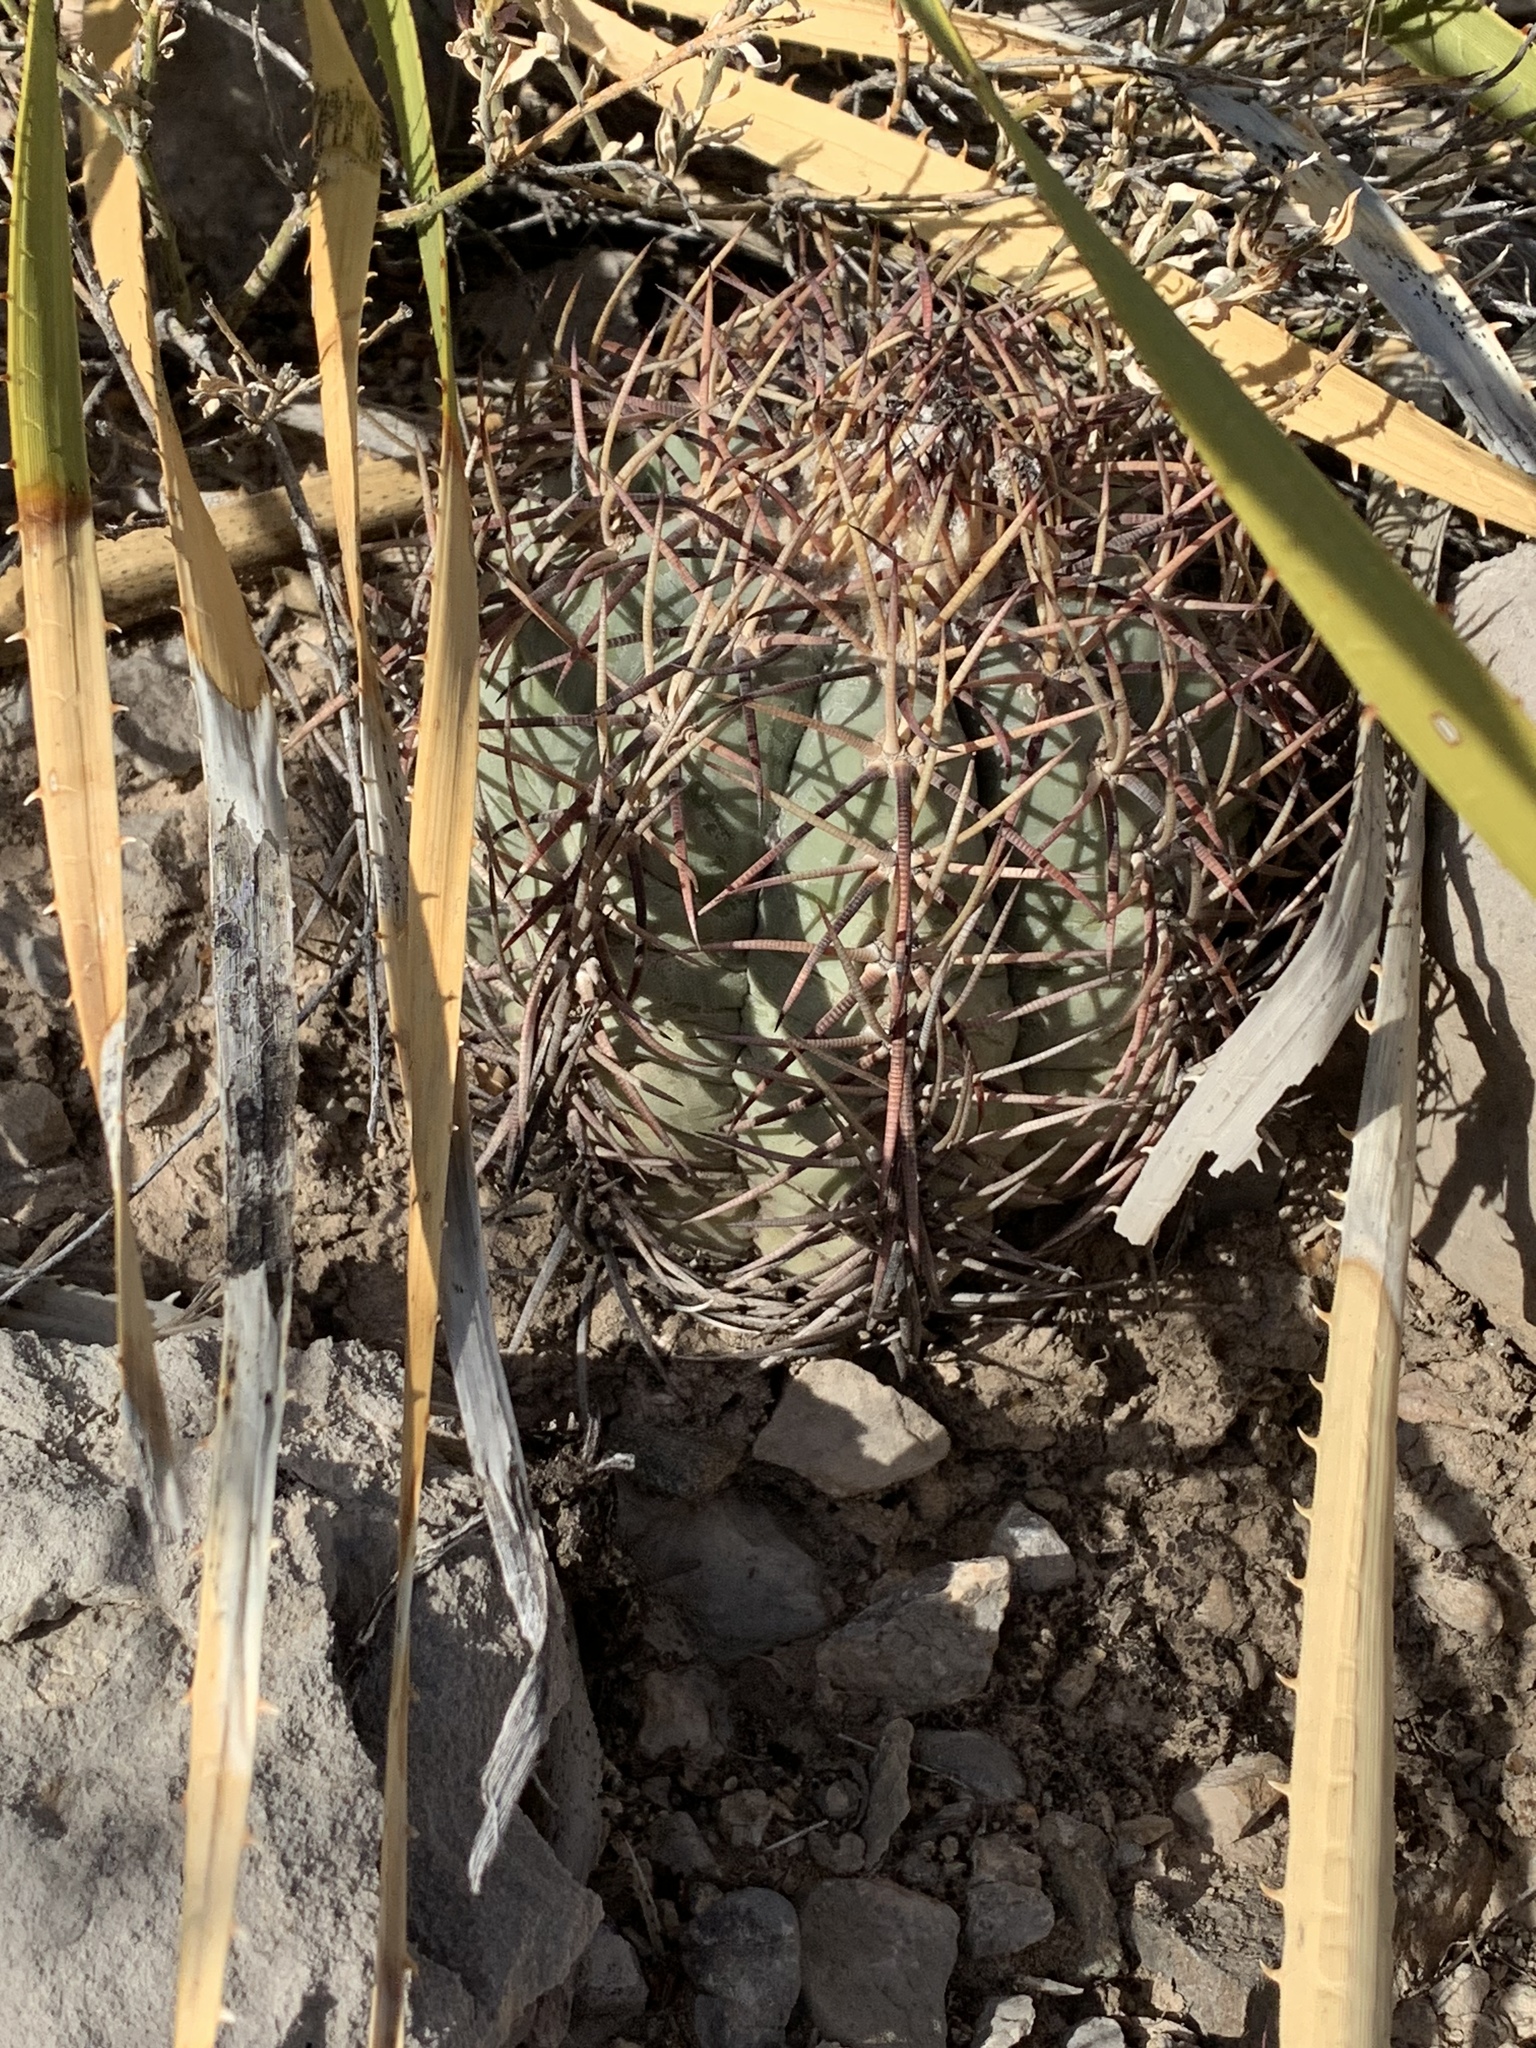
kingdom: Plantae
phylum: Tracheophyta
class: Magnoliopsida
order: Caryophyllales
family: Cactaceae
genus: Echinocactus
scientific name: Echinocactus horizonthalonius
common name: Devilshead
